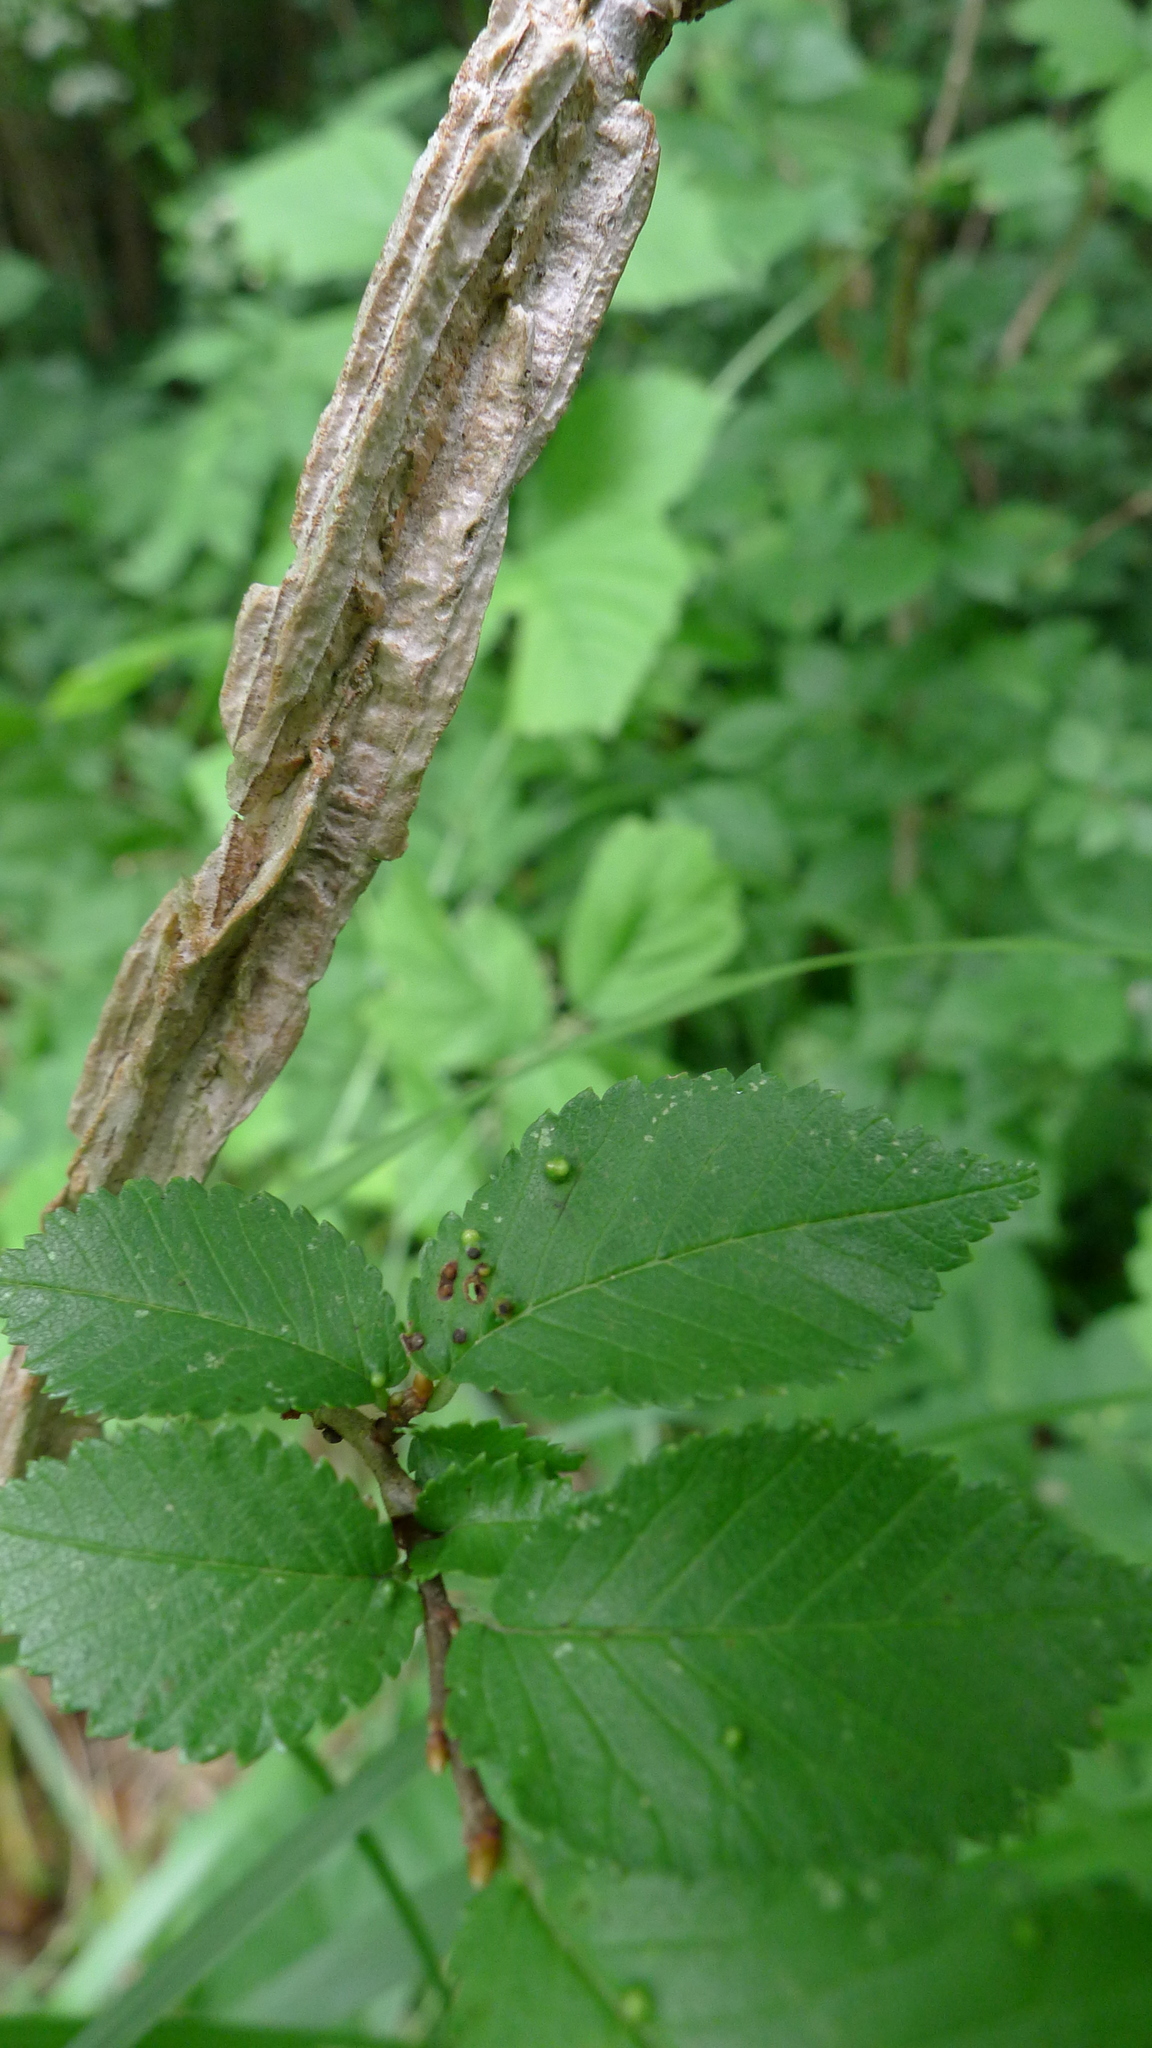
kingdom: Plantae
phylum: Tracheophyta
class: Magnoliopsida
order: Rosales
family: Ulmaceae
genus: Ulmus
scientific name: Ulmus minor
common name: Small-leaved elm
